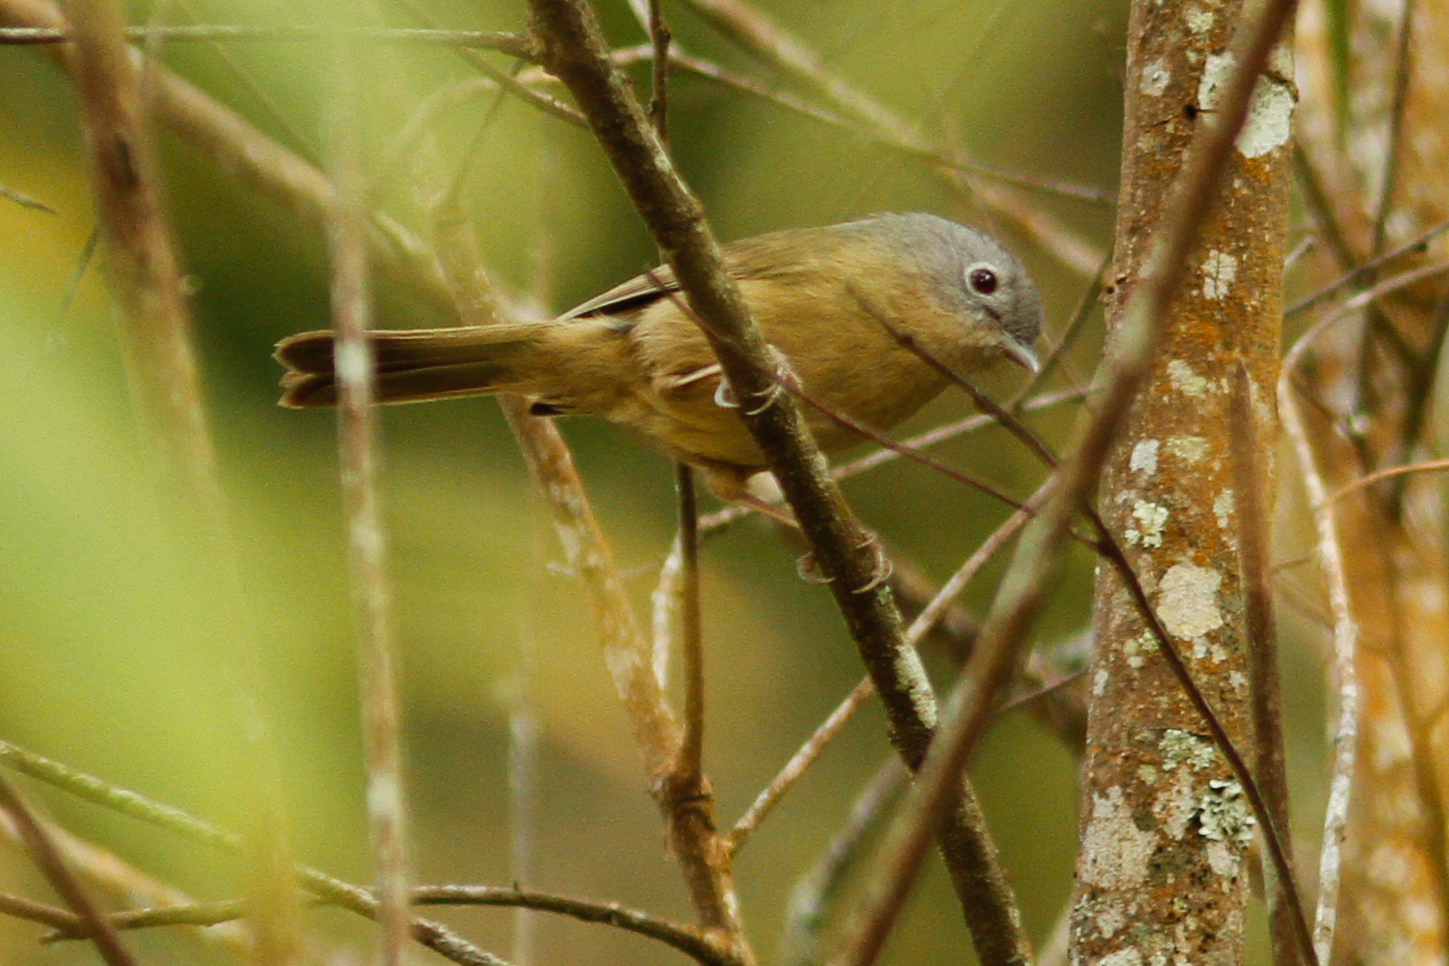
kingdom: Animalia
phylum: Chordata
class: Aves
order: Passeriformes
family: Pellorneidae
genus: Alcippe
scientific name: Alcippe fratercula
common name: Yunnan fulvetta
